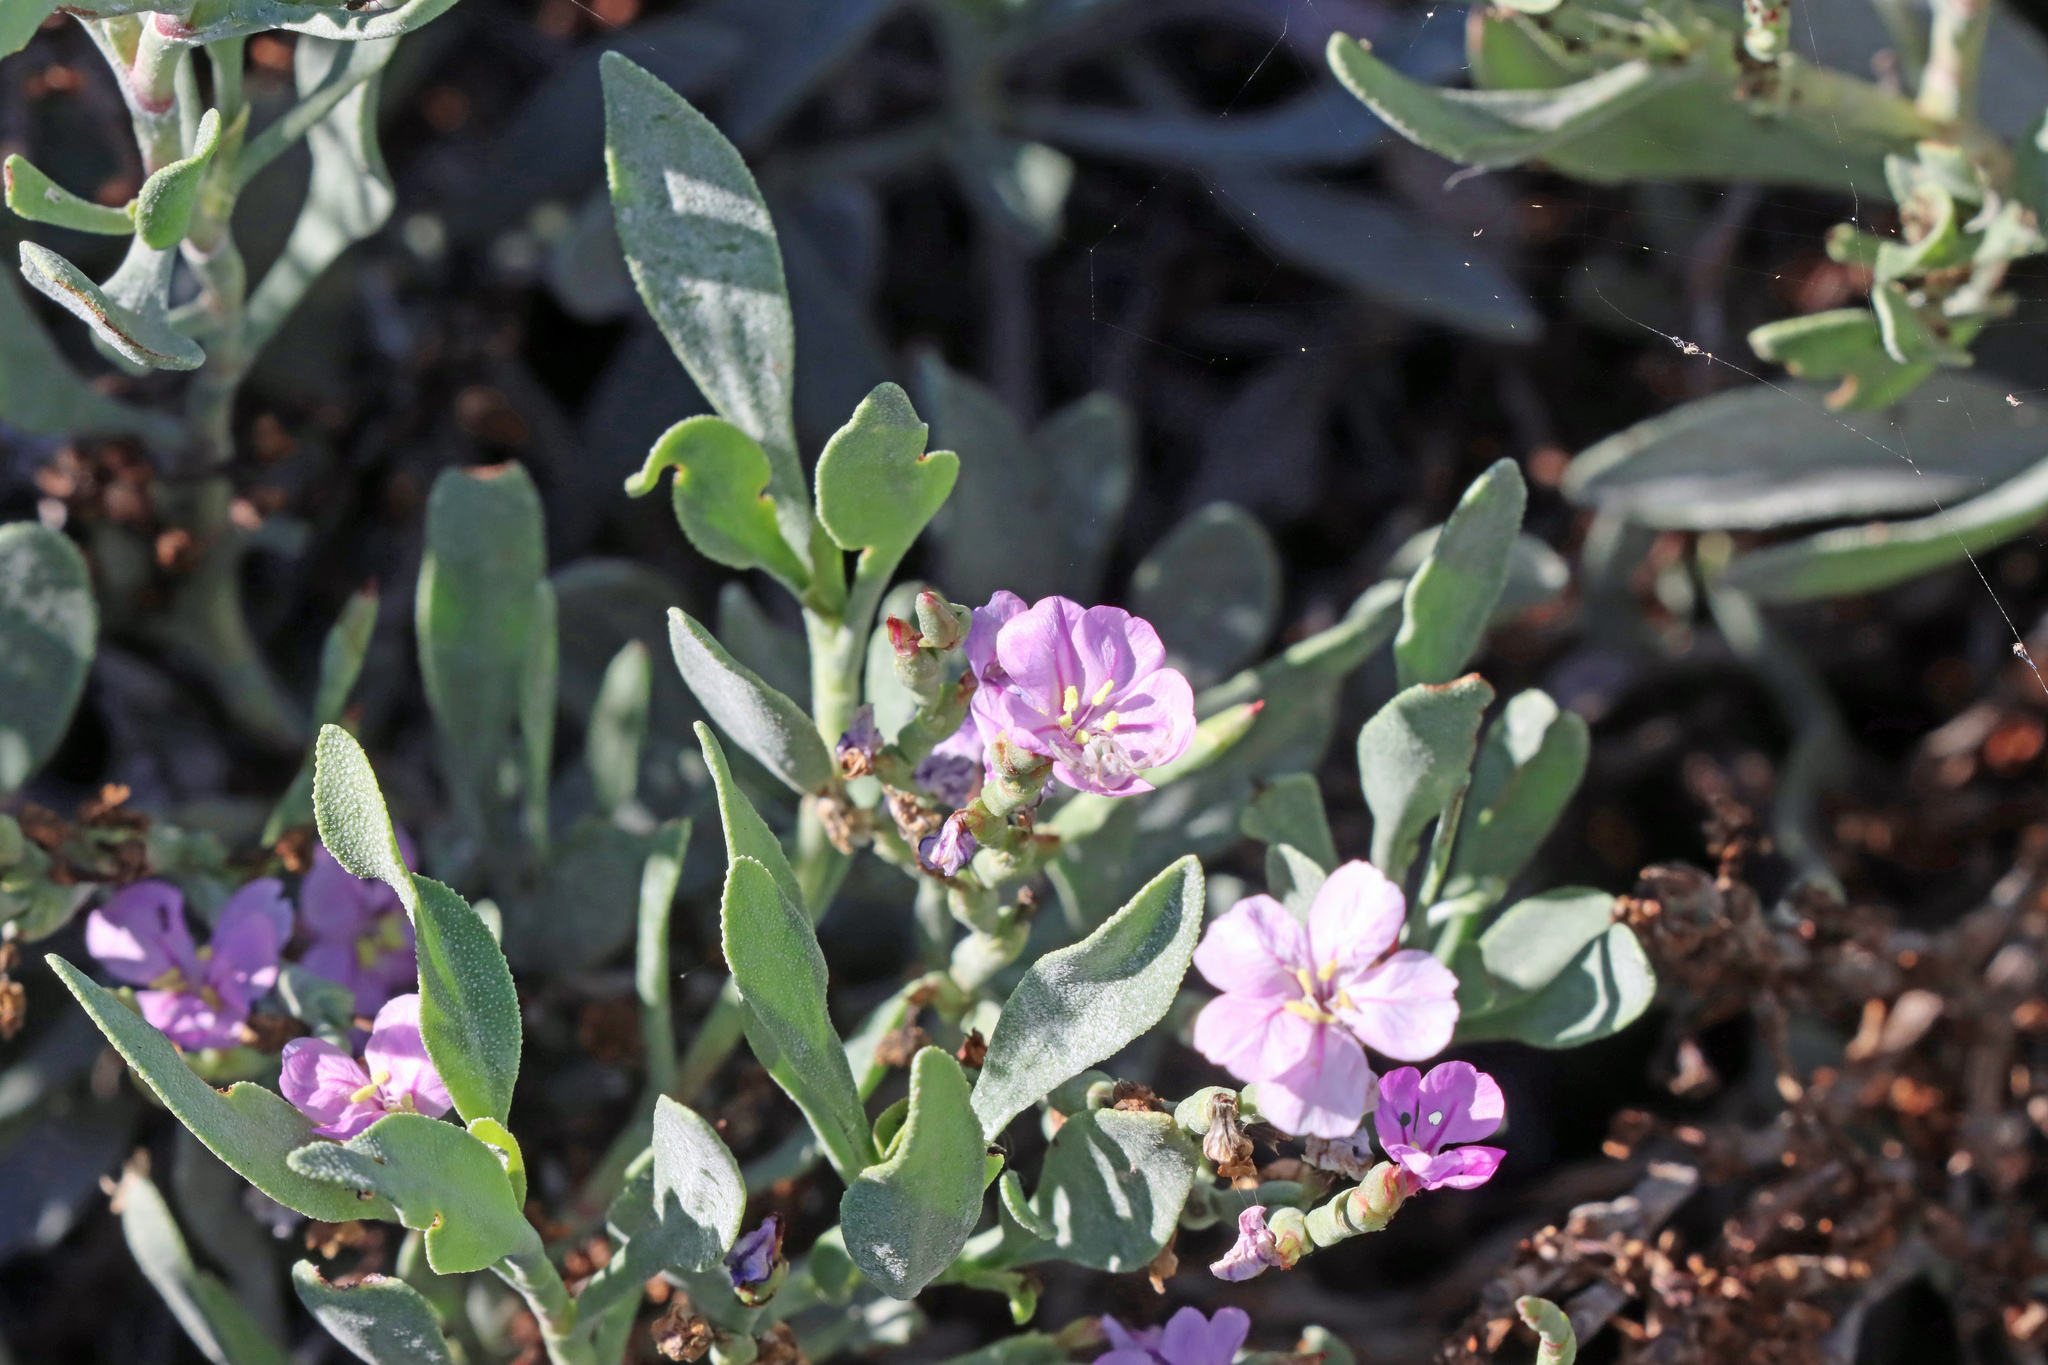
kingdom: Plantae
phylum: Tracheophyta
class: Magnoliopsida
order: Caryophyllales
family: Plumbaginaceae
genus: Limoniastrum
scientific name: Limoniastrum monopetalum
